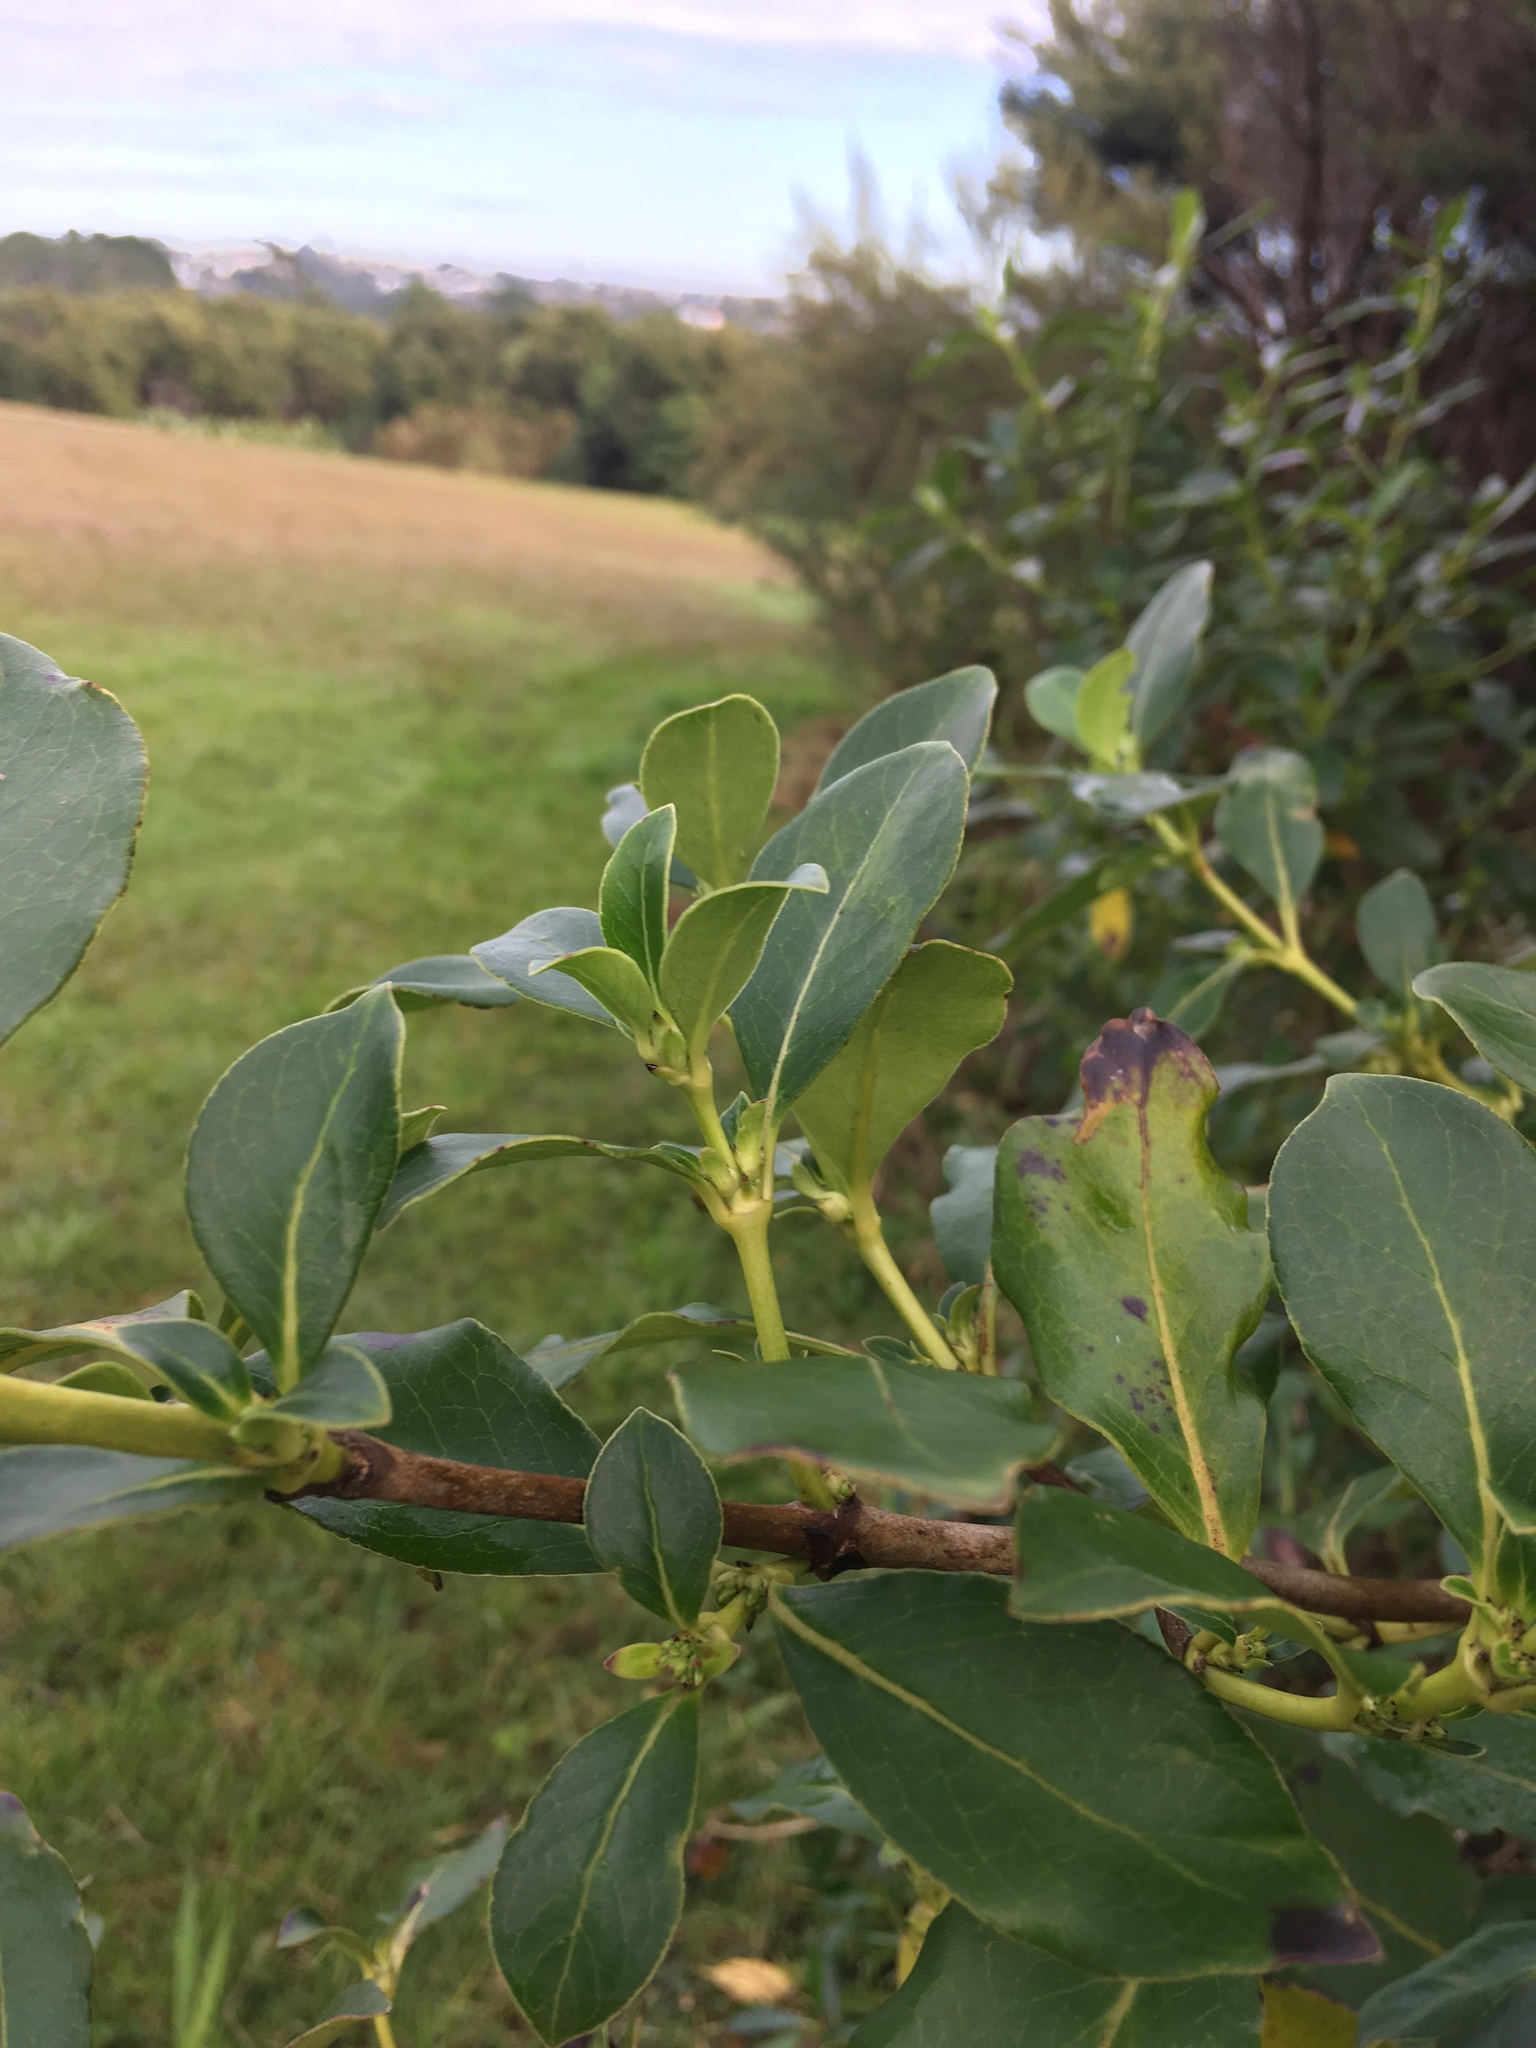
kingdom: Plantae
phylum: Tracheophyta
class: Magnoliopsida
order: Gentianales
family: Rubiaceae
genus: Coprosma
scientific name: Coprosma robusta
